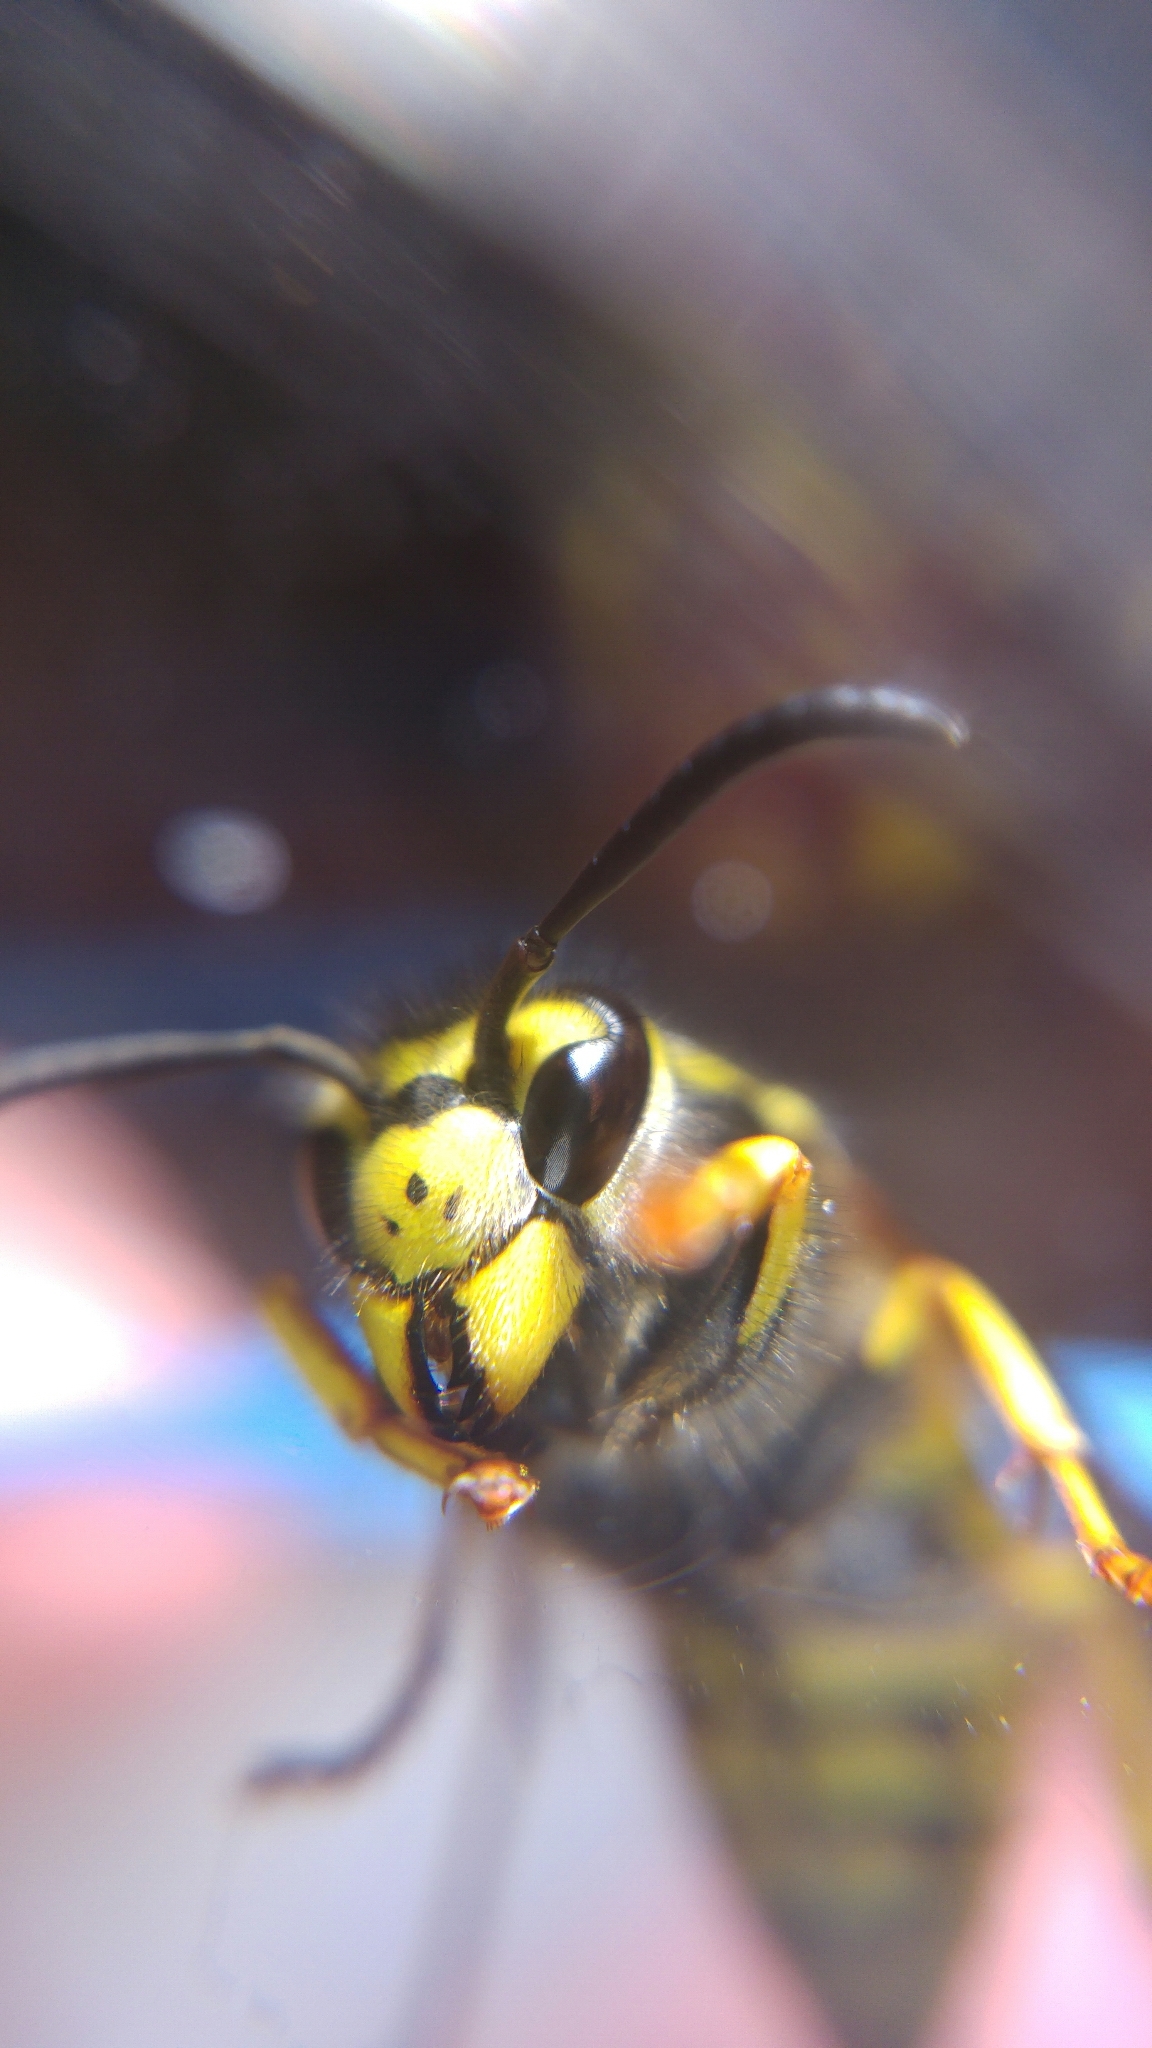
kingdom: Animalia
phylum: Arthropoda
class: Insecta
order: Hymenoptera
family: Vespidae
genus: Vespula
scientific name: Vespula germanica
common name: German wasp
